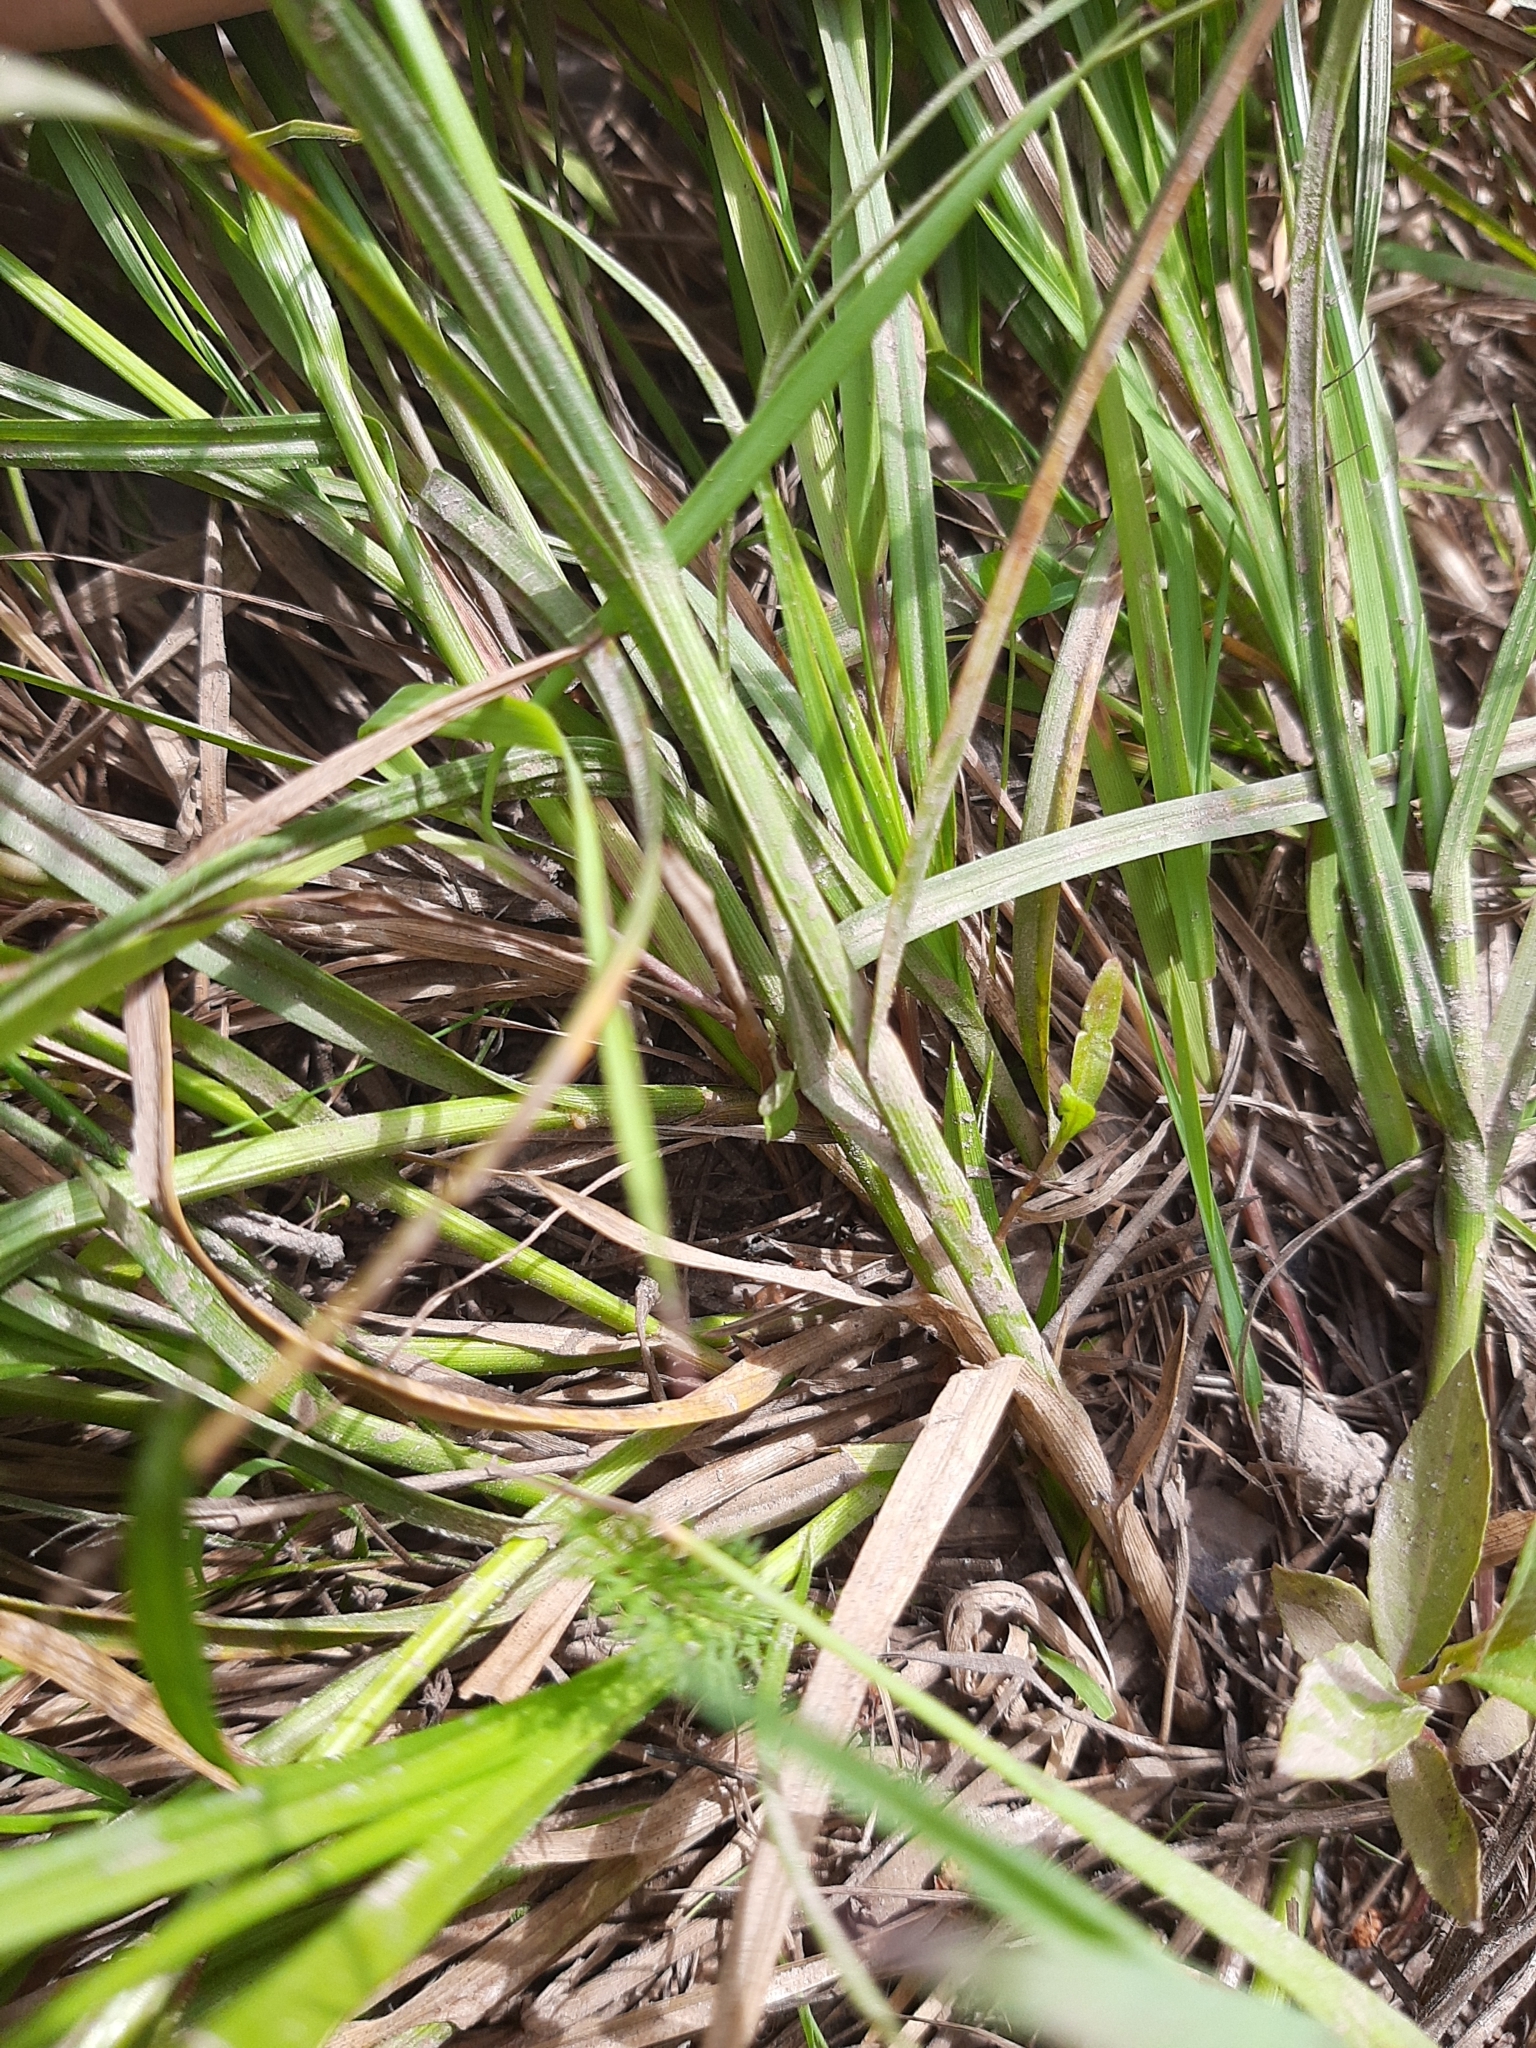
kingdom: Plantae
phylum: Tracheophyta
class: Liliopsida
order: Poales
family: Cyperaceae
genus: Carex
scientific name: Carex leporina
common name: Oval sedge
